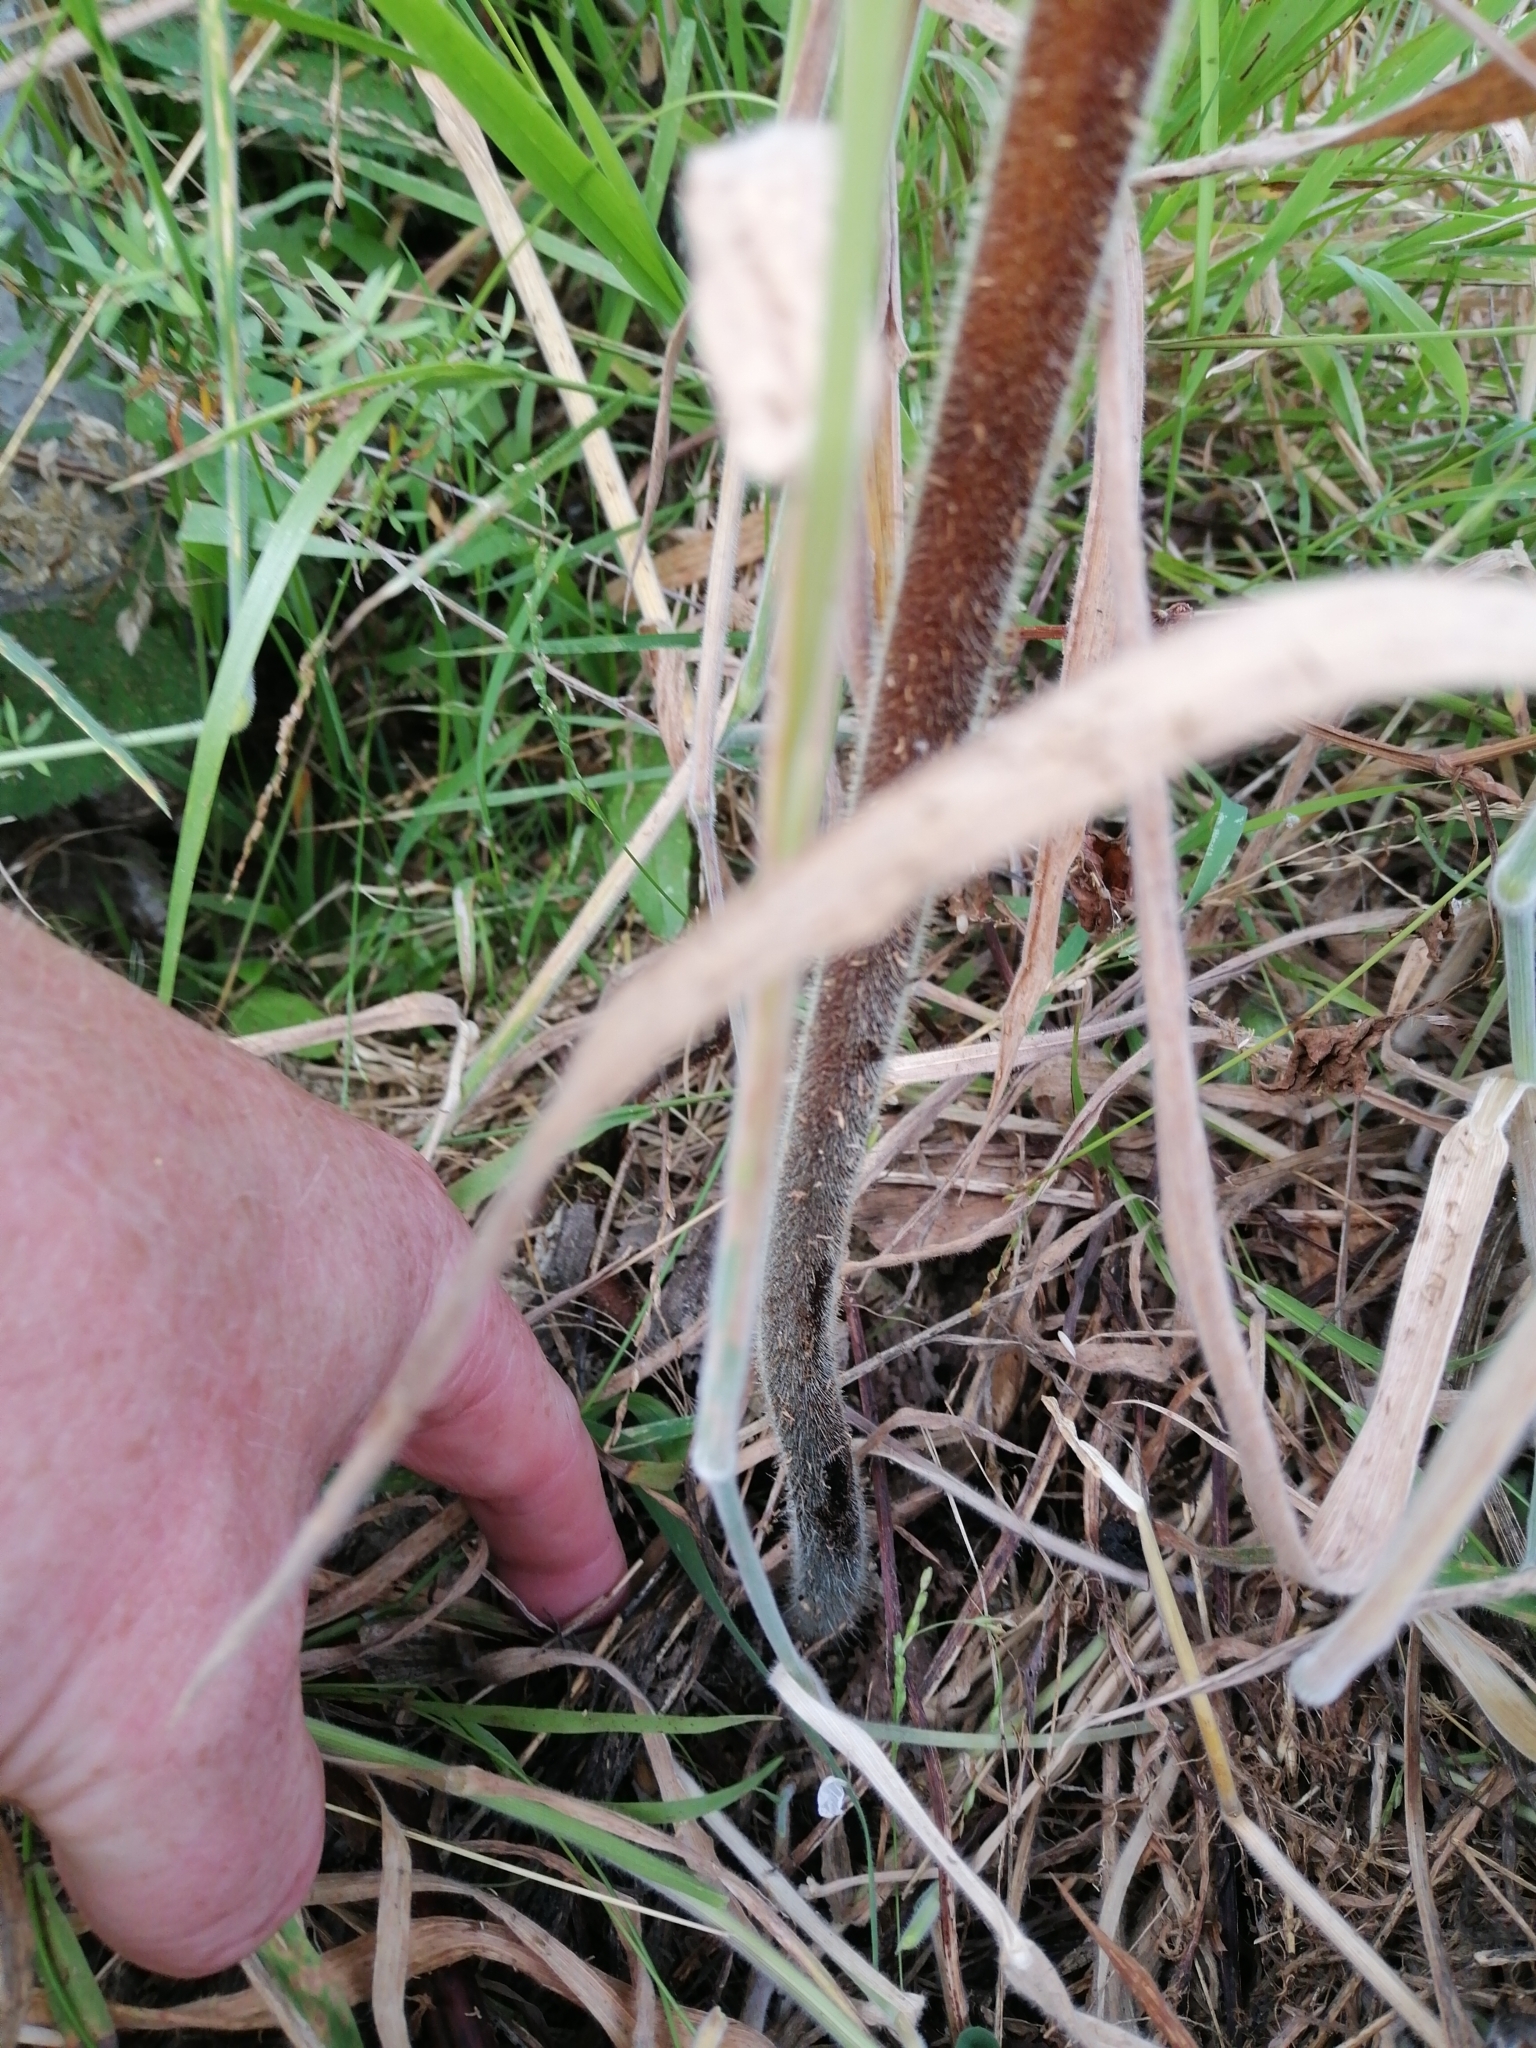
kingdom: Plantae
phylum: Tracheophyta
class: Polypodiopsida
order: Polypodiales
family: Dennstaedtiaceae
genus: Hypolepis
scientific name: Hypolepis ambigua
